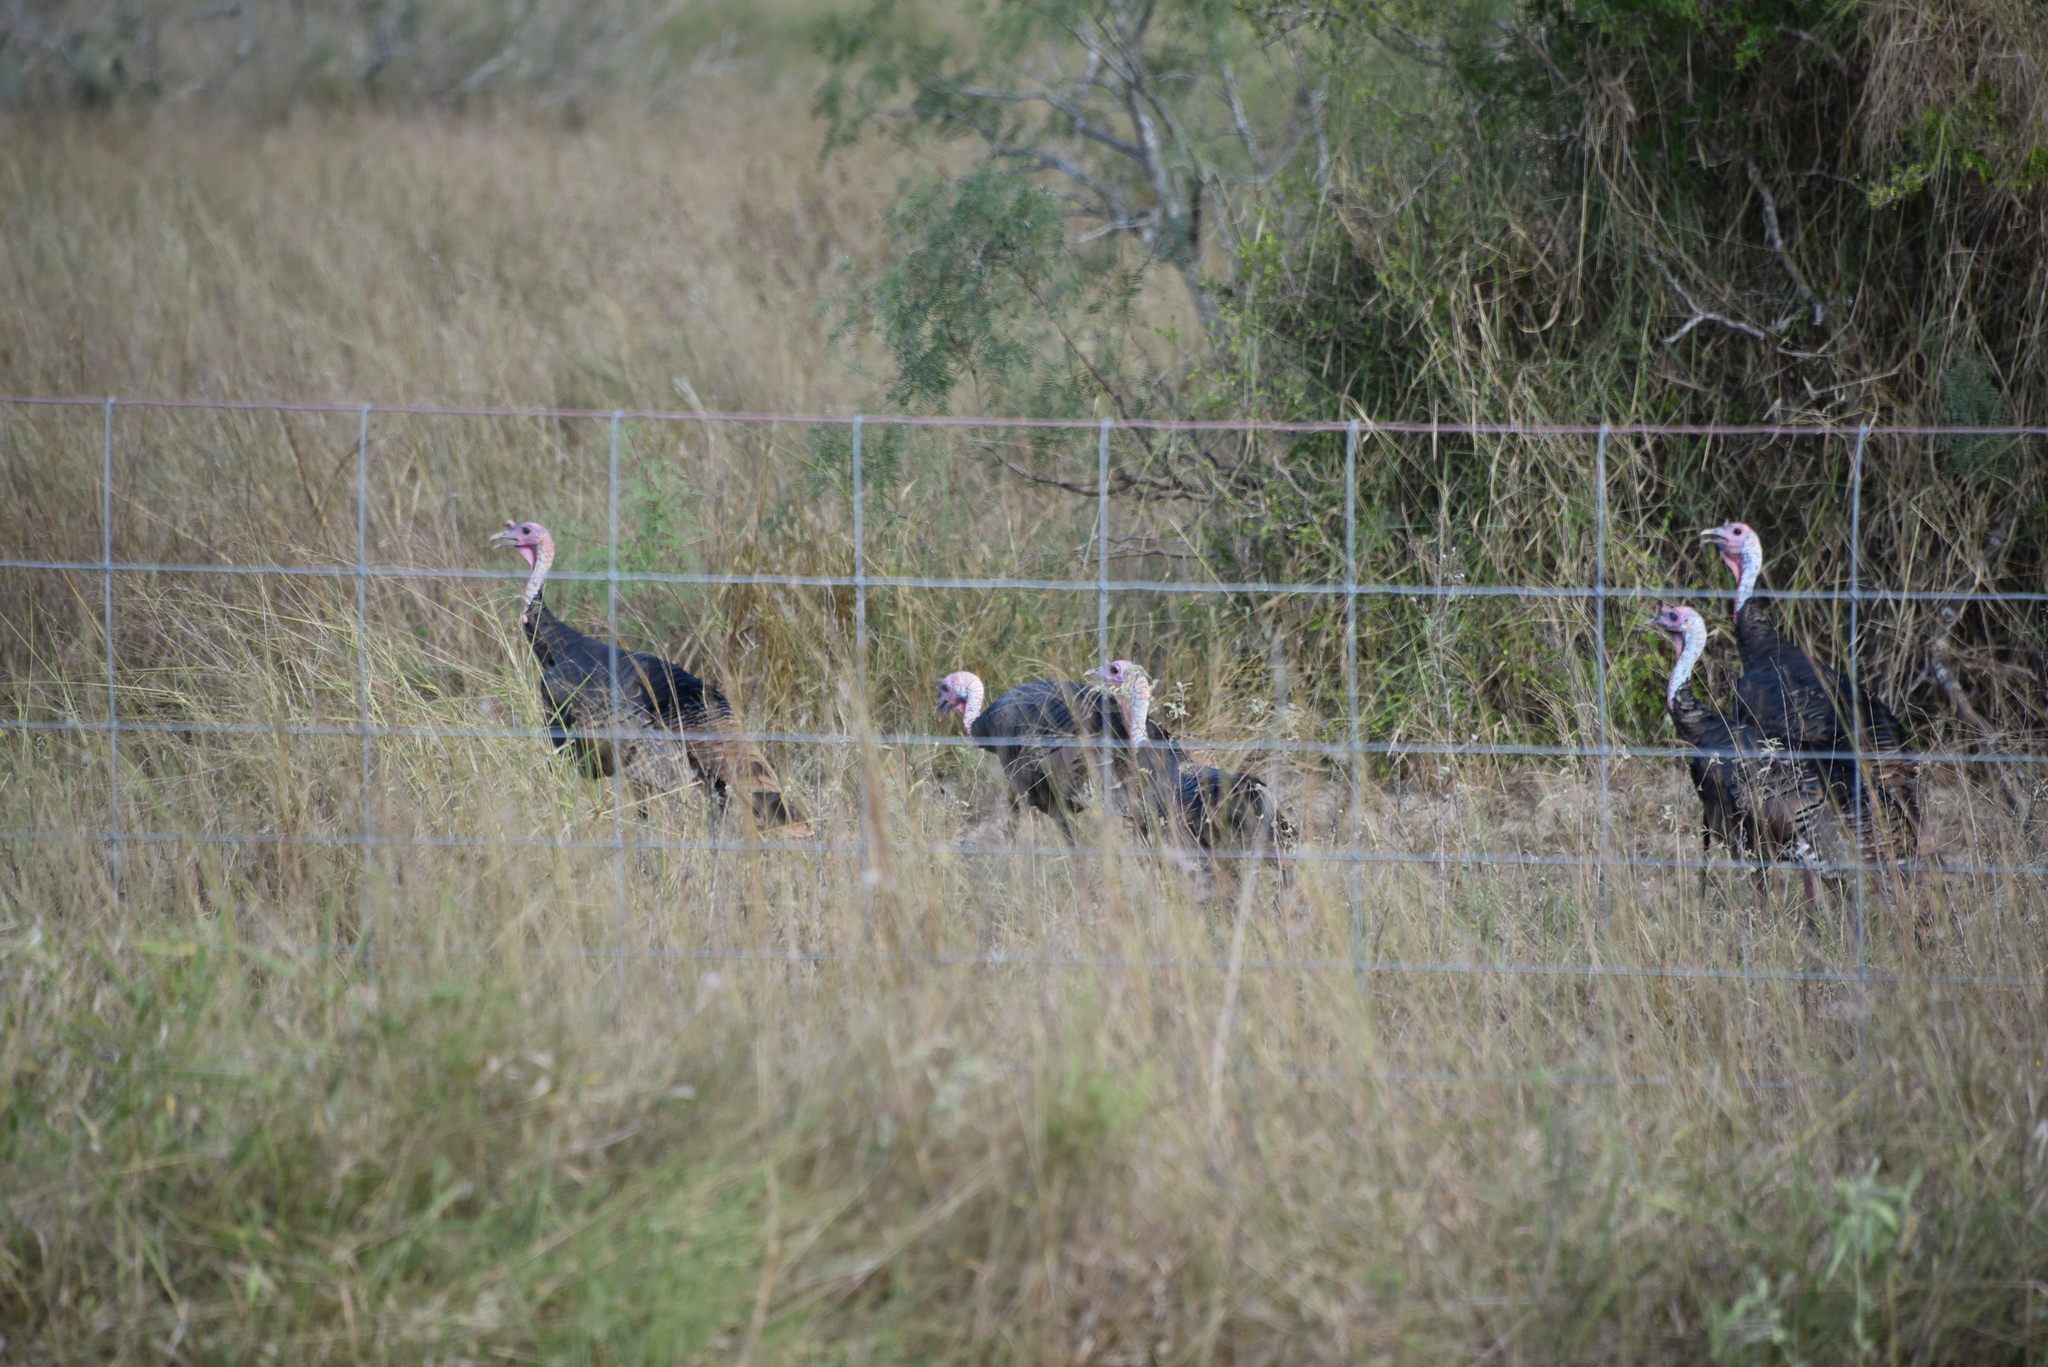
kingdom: Animalia
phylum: Chordata
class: Aves
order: Galliformes
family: Phasianidae
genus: Meleagris
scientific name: Meleagris gallopavo
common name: Wild turkey
